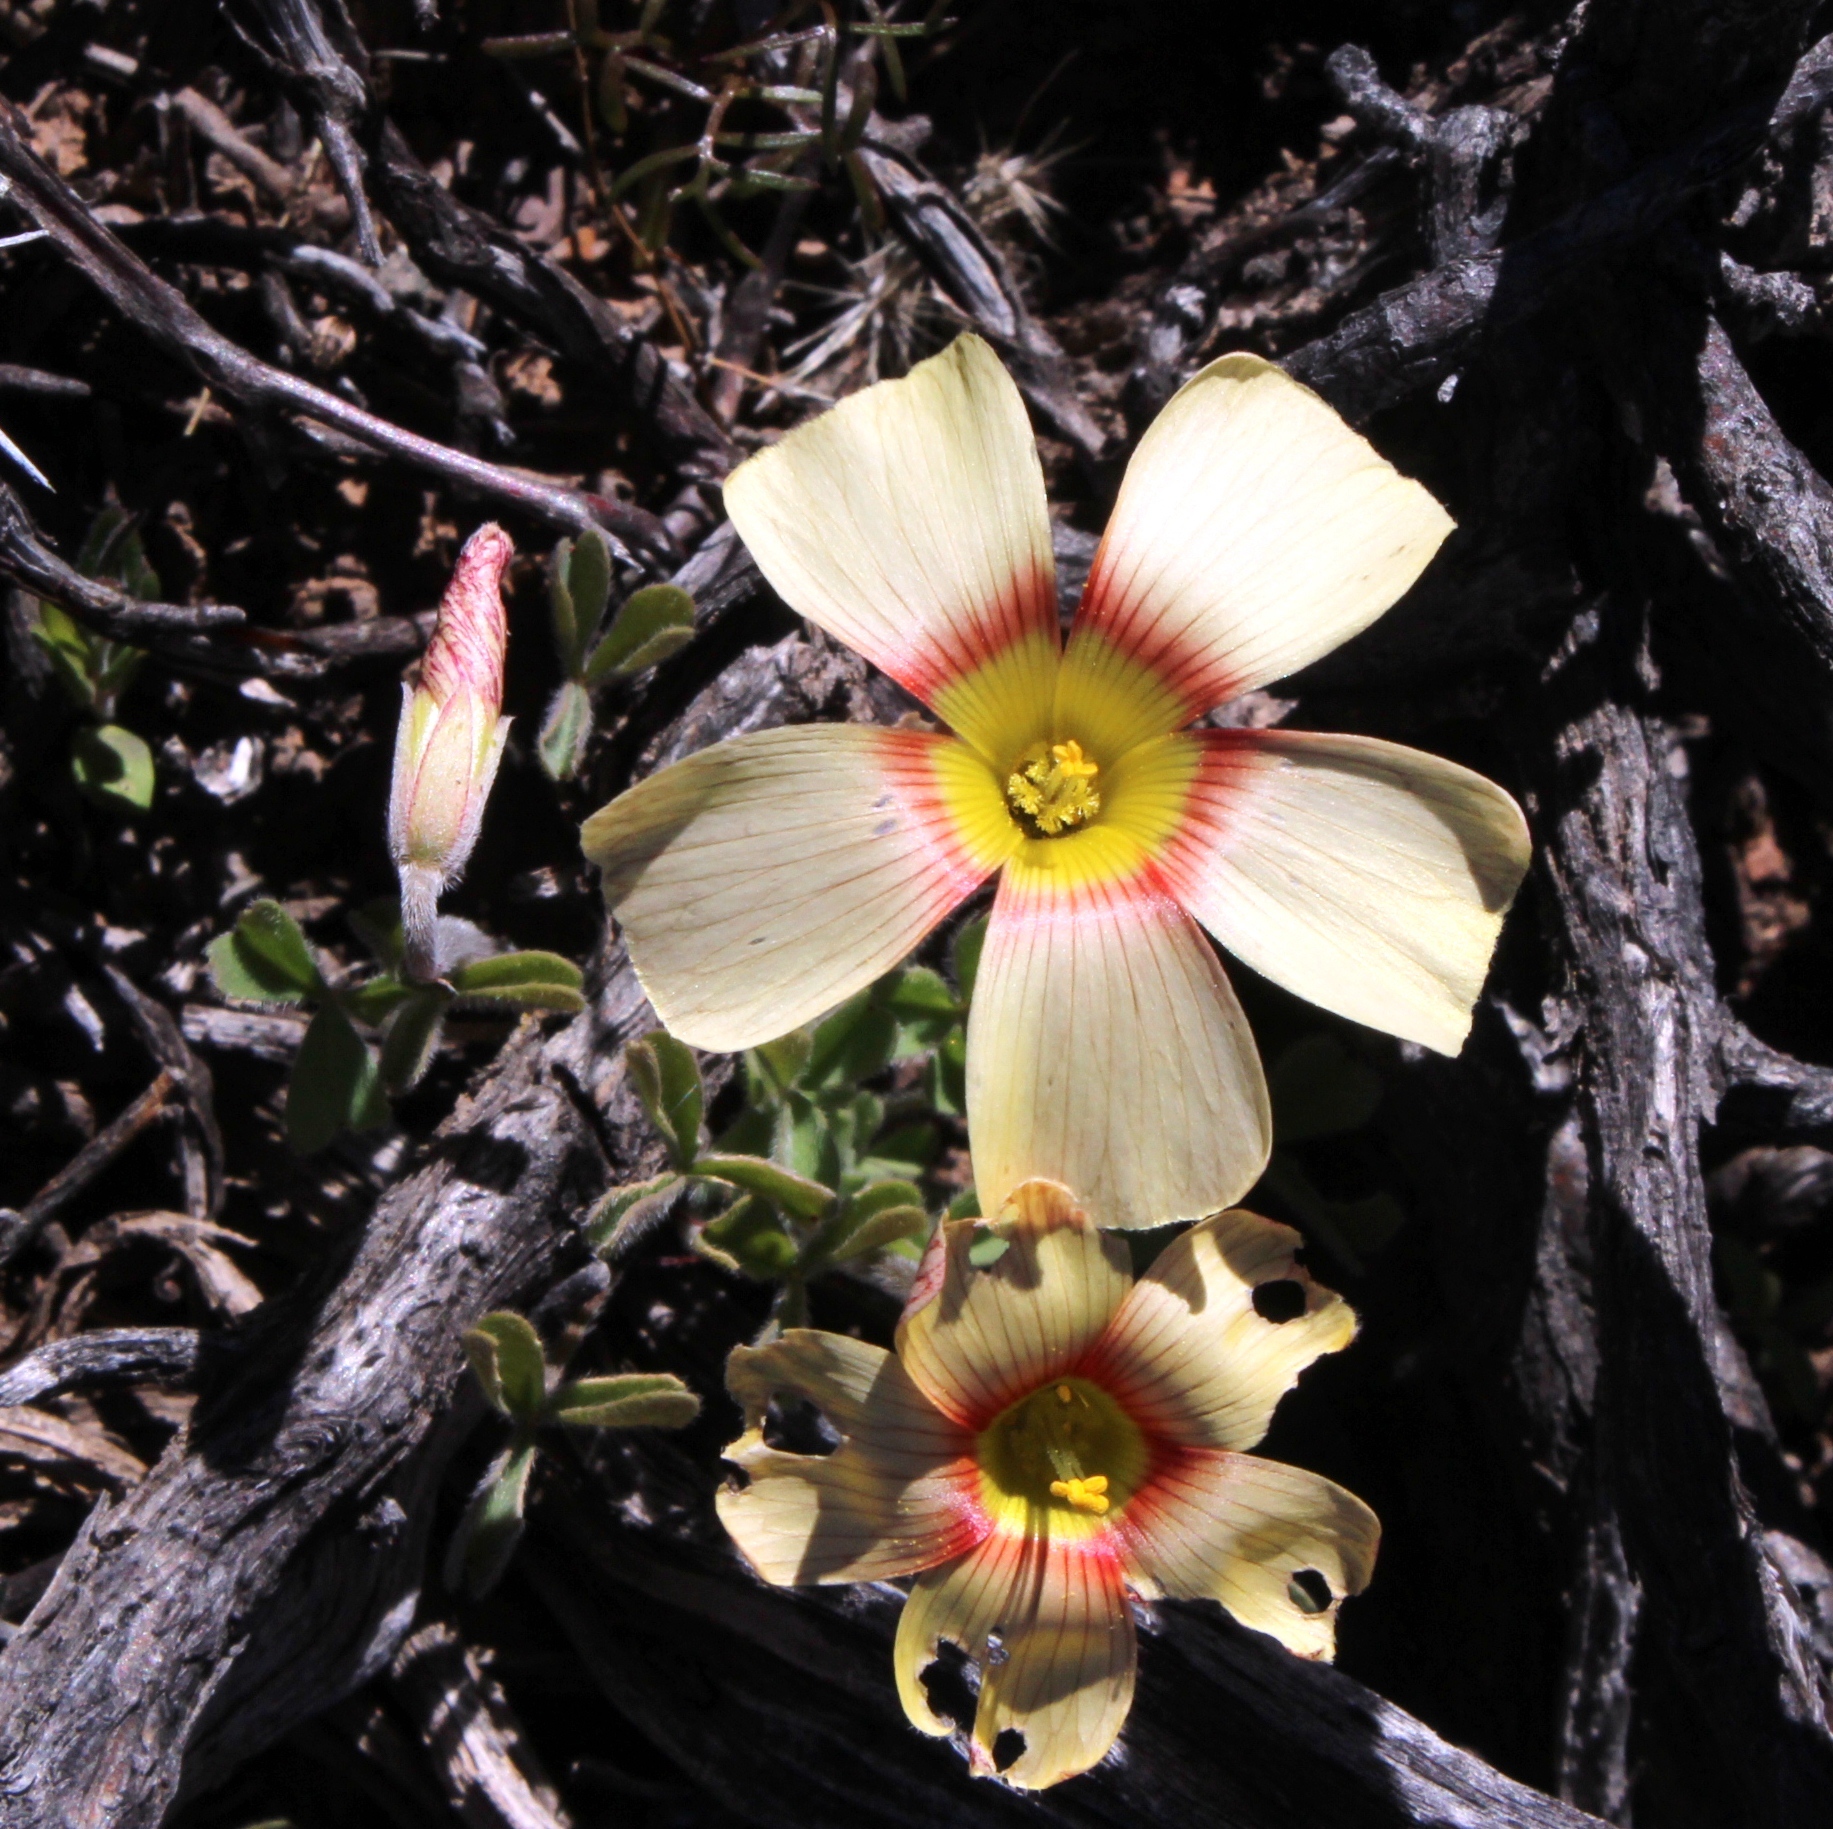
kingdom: Plantae
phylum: Tracheophyta
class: Magnoliopsida
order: Oxalidales
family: Oxalidaceae
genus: Oxalis
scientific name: Oxalis obtusa
